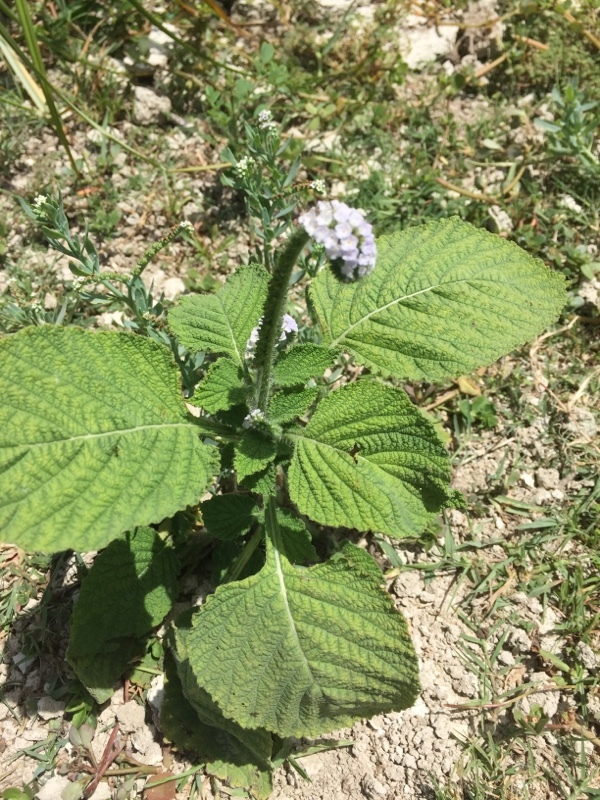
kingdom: Plantae
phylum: Tracheophyta
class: Magnoliopsida
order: Boraginales
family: Heliotropiaceae
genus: Heliotropium
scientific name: Heliotropium indicum
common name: Indian heliotrope
